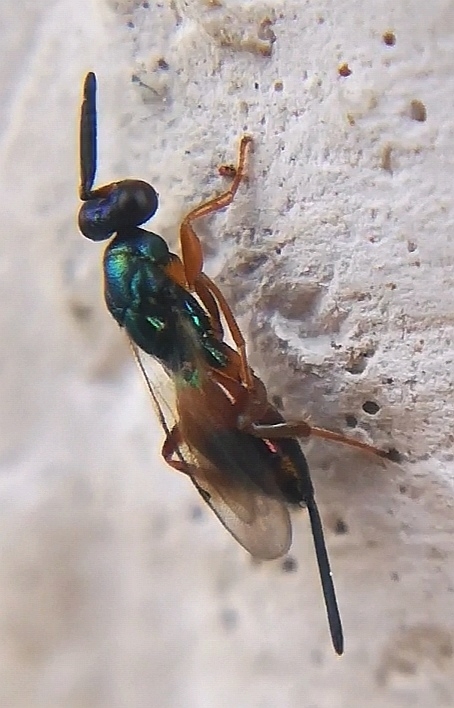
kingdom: Animalia
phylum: Arthropoda
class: Insecta
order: Hymenoptera
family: Torymidae
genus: Torymus
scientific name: Torymus nobilis
